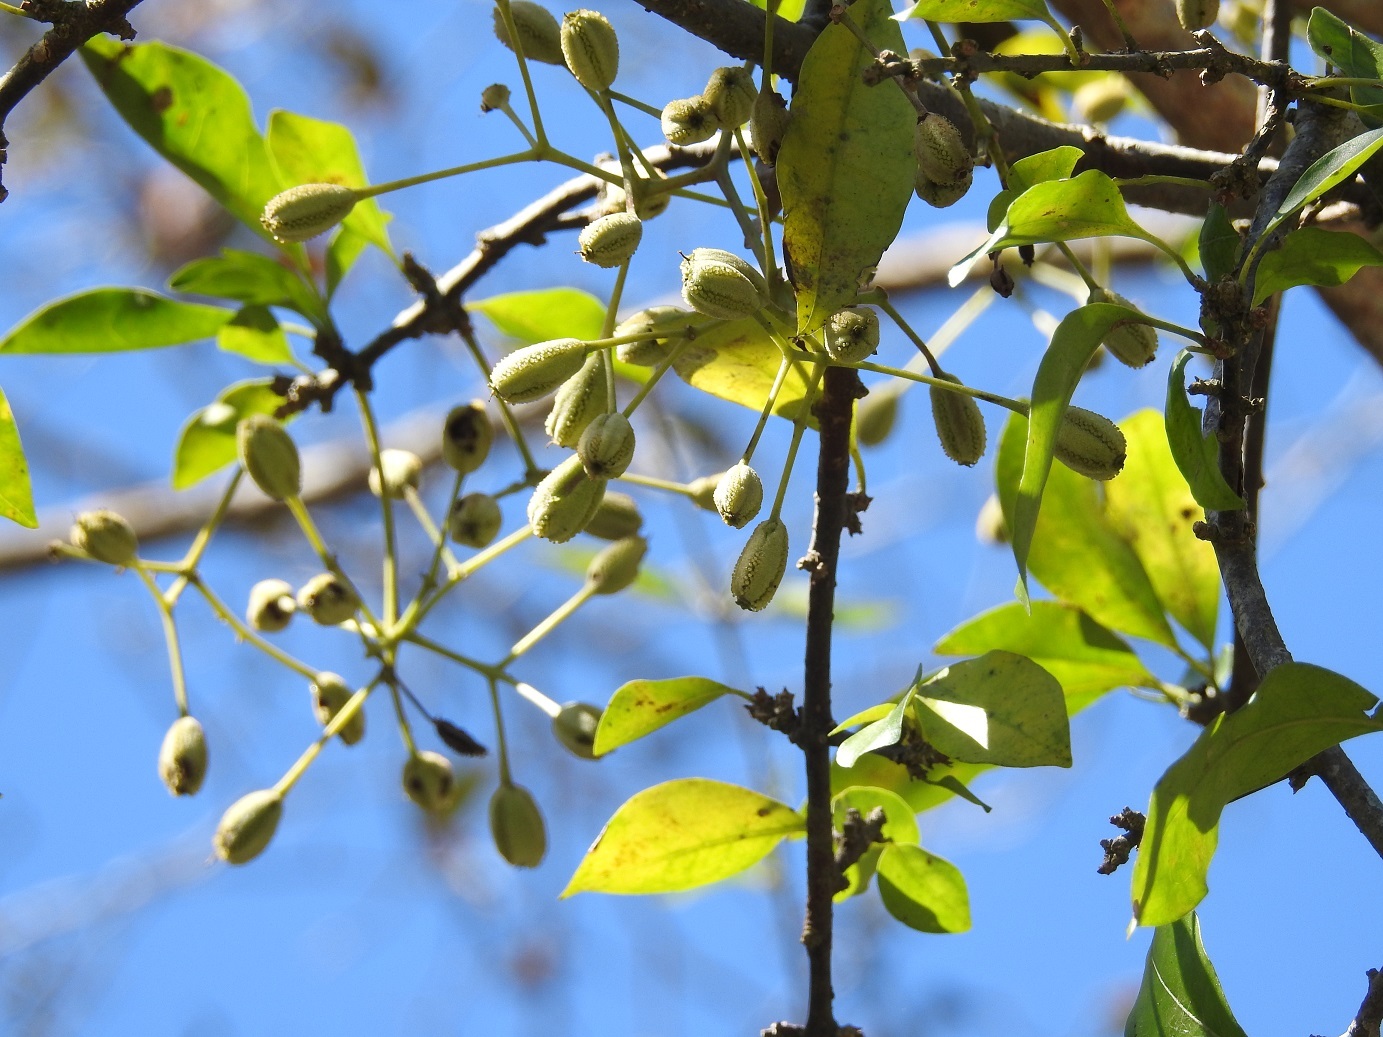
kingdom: Plantae
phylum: Tracheophyta
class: Magnoliopsida
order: Caryophyllales
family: Nyctaginaceae
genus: Pisonia
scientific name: Pisonia macranthocarpa
